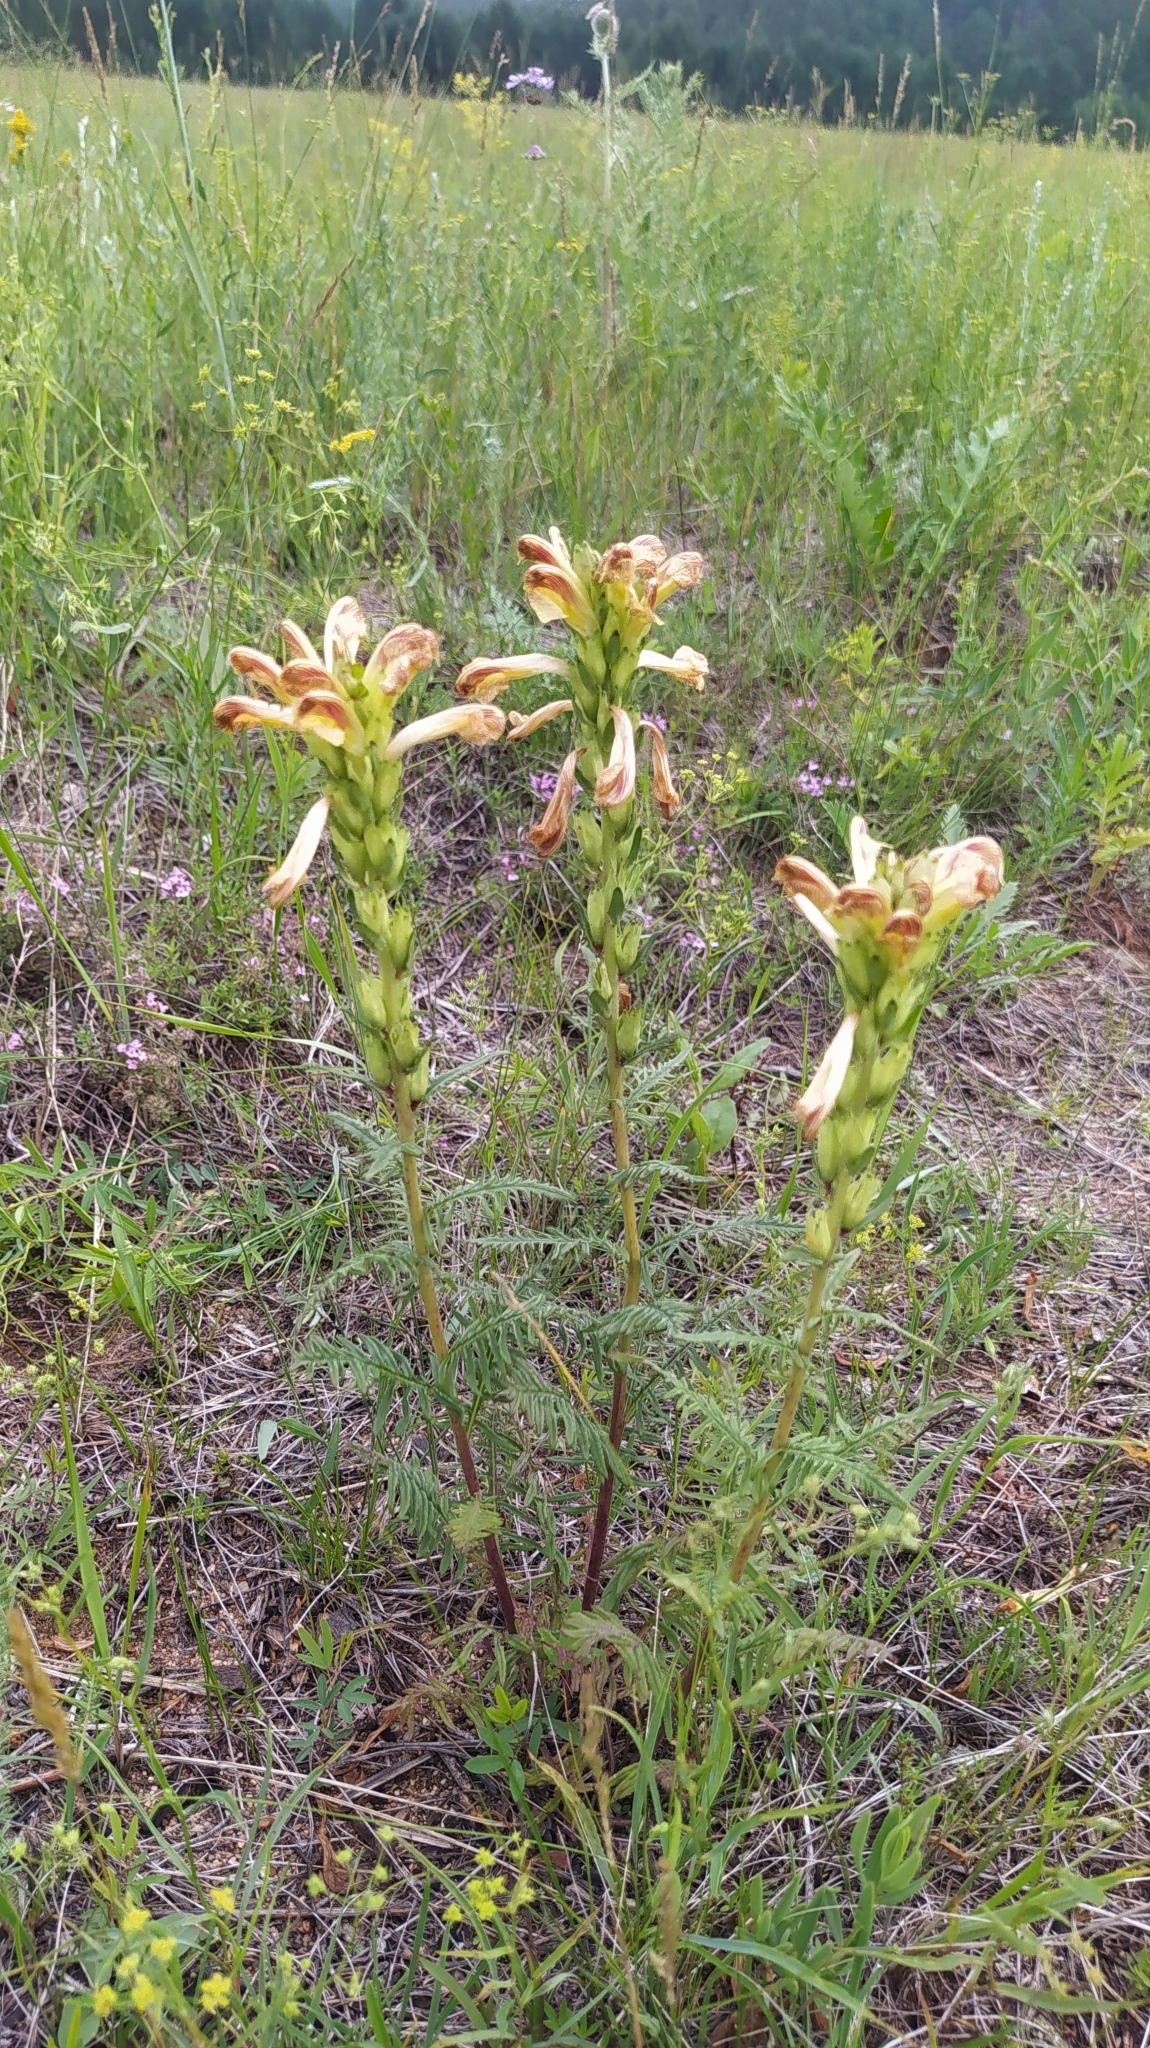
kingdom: Plantae
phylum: Tracheophyta
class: Magnoliopsida
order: Lamiales
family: Orobanchaceae
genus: Pedicularis
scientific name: Pedicularis striata
